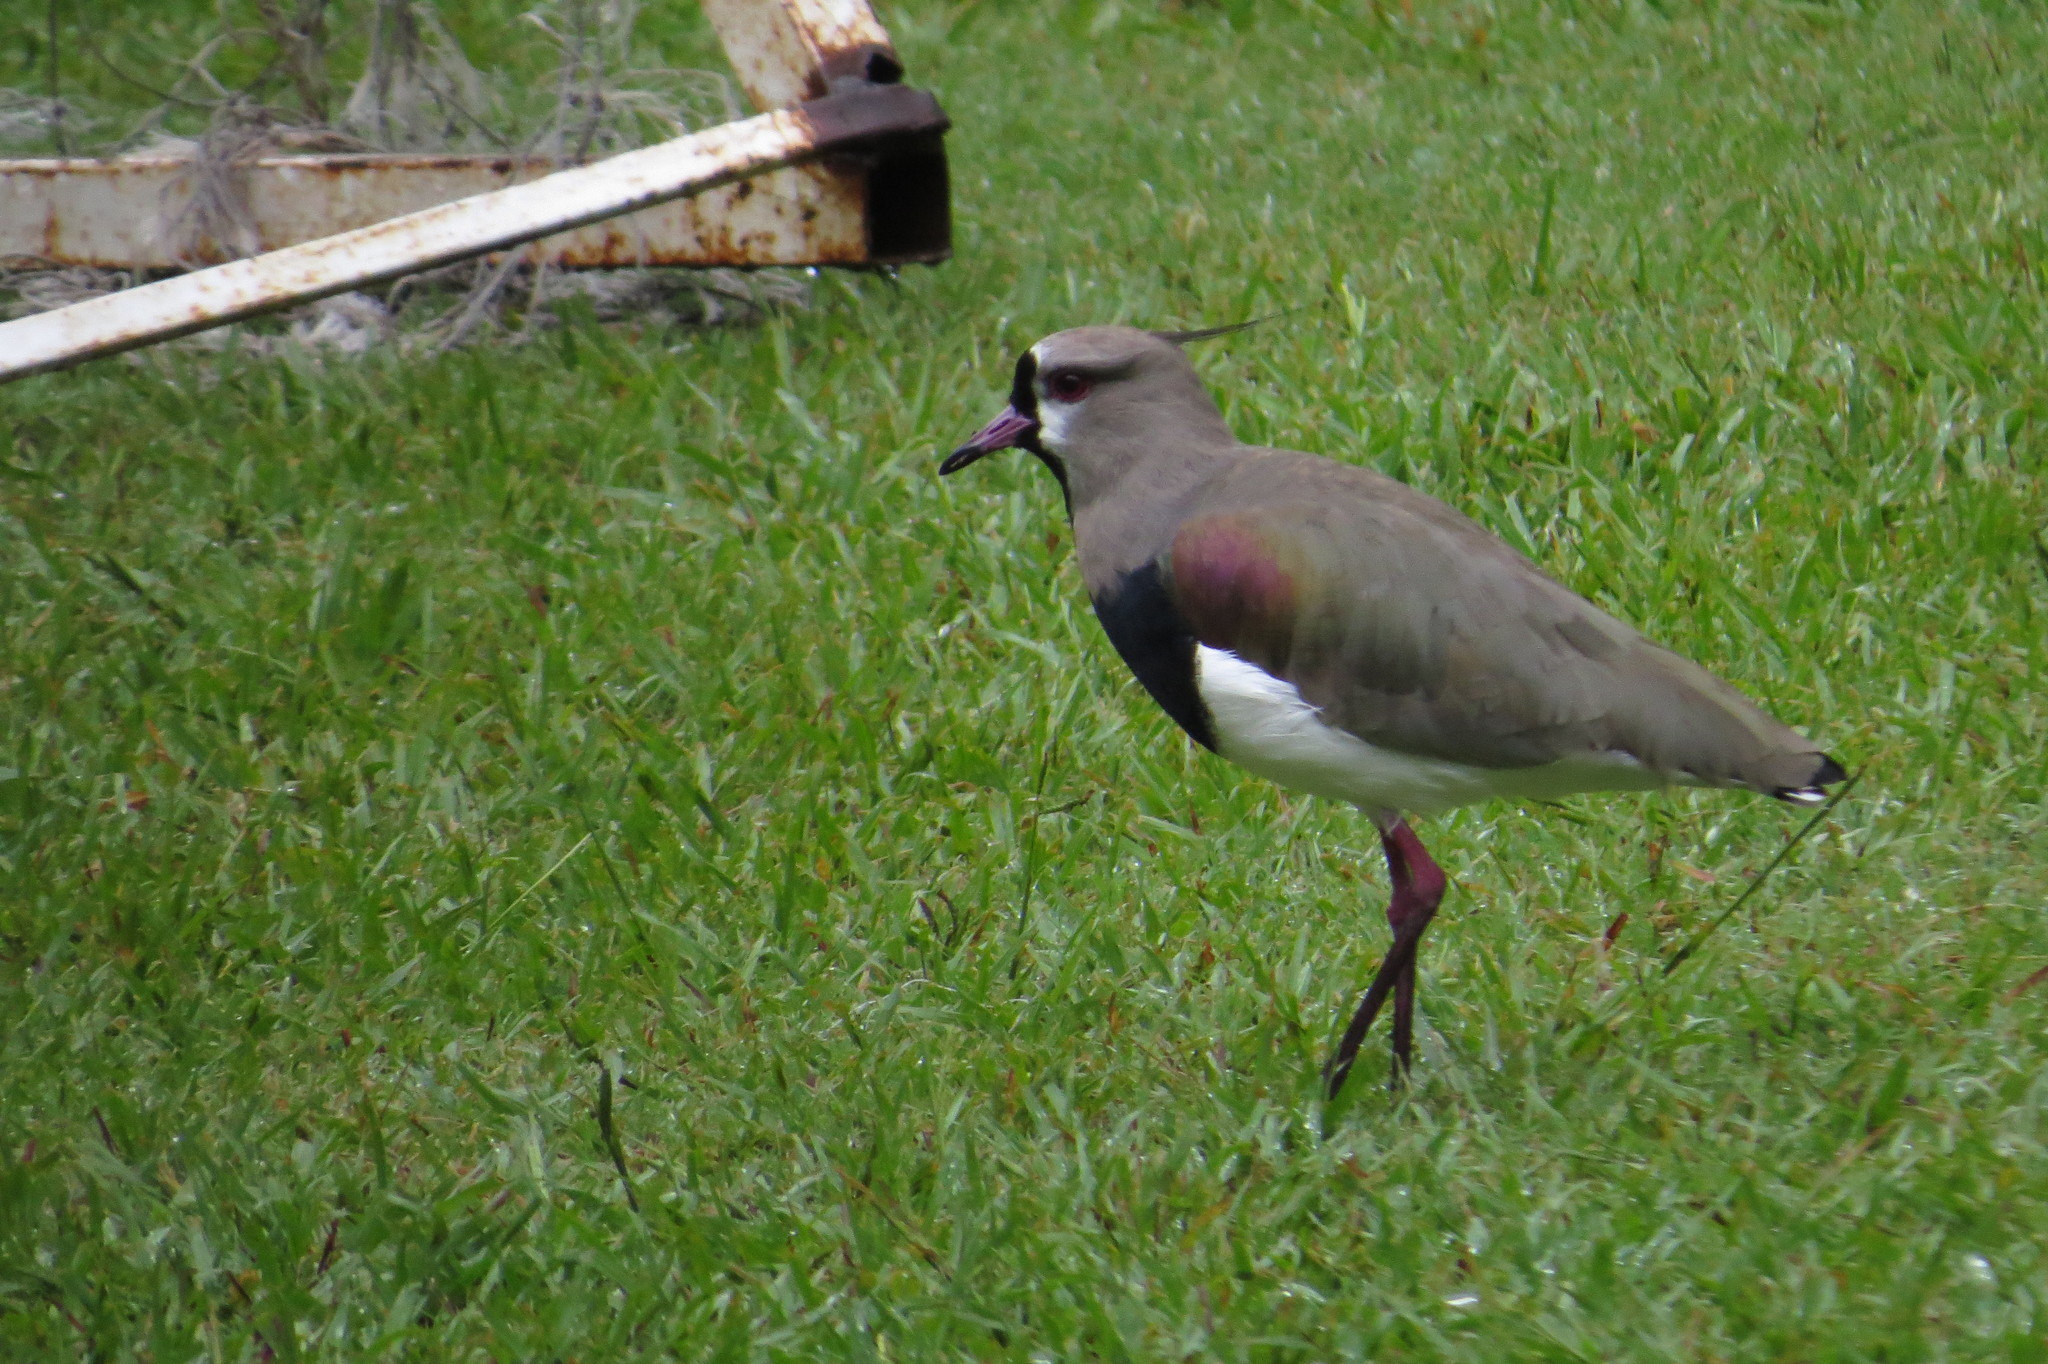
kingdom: Animalia
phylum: Chordata
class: Aves
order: Charadriiformes
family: Charadriidae
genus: Vanellus
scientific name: Vanellus chilensis
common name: Southern lapwing
